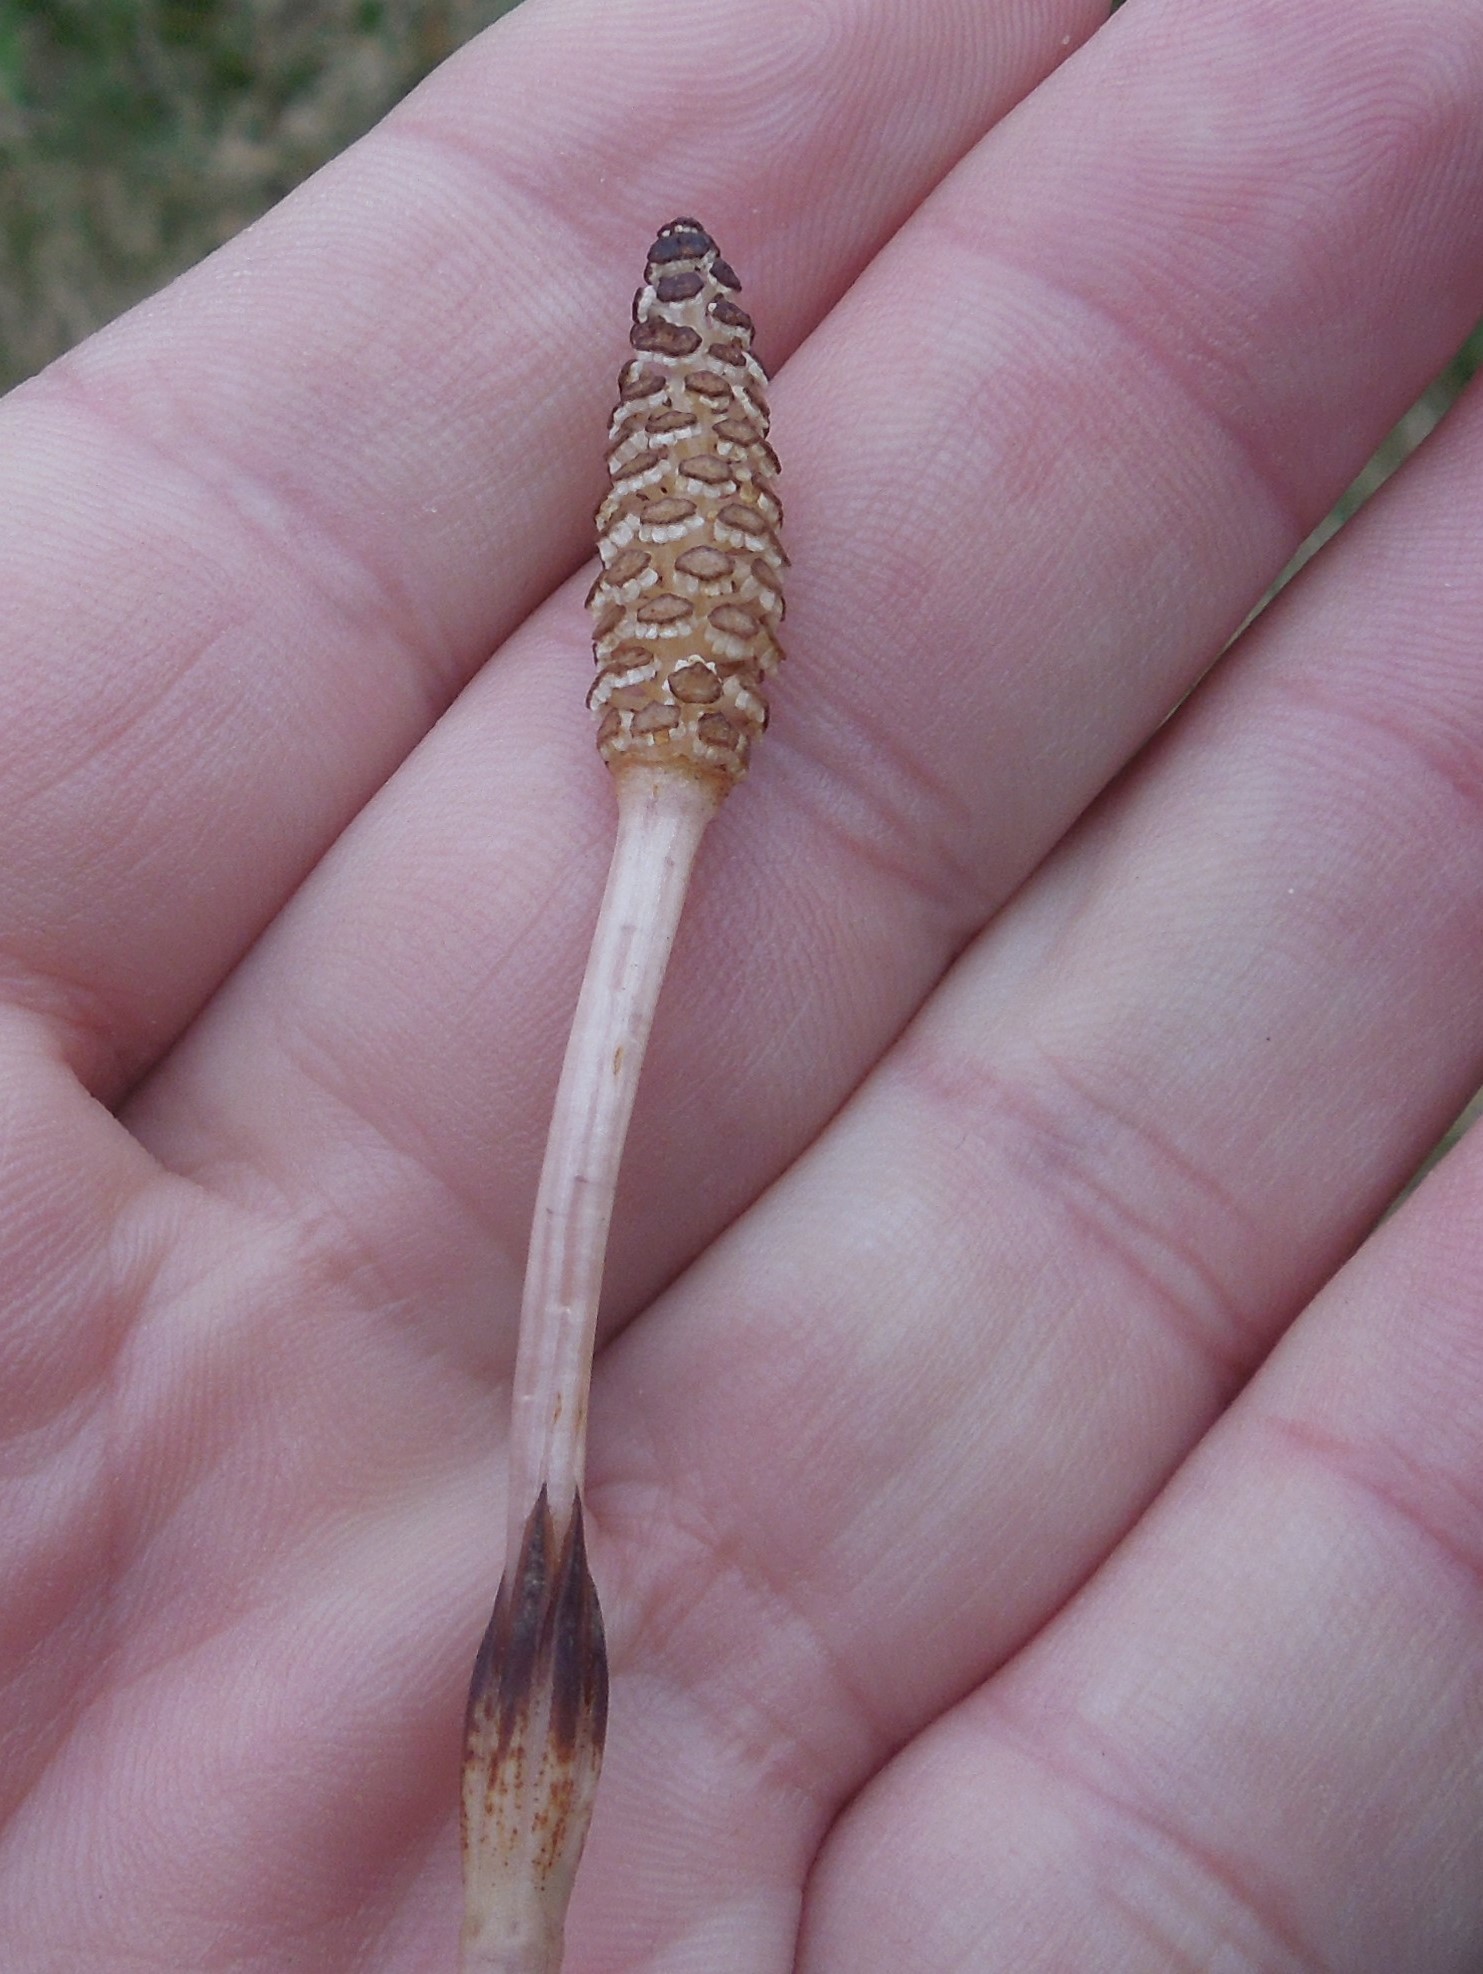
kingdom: Plantae
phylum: Tracheophyta
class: Polypodiopsida
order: Equisetales
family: Equisetaceae
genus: Equisetum
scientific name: Equisetum arvense
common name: Field horsetail
